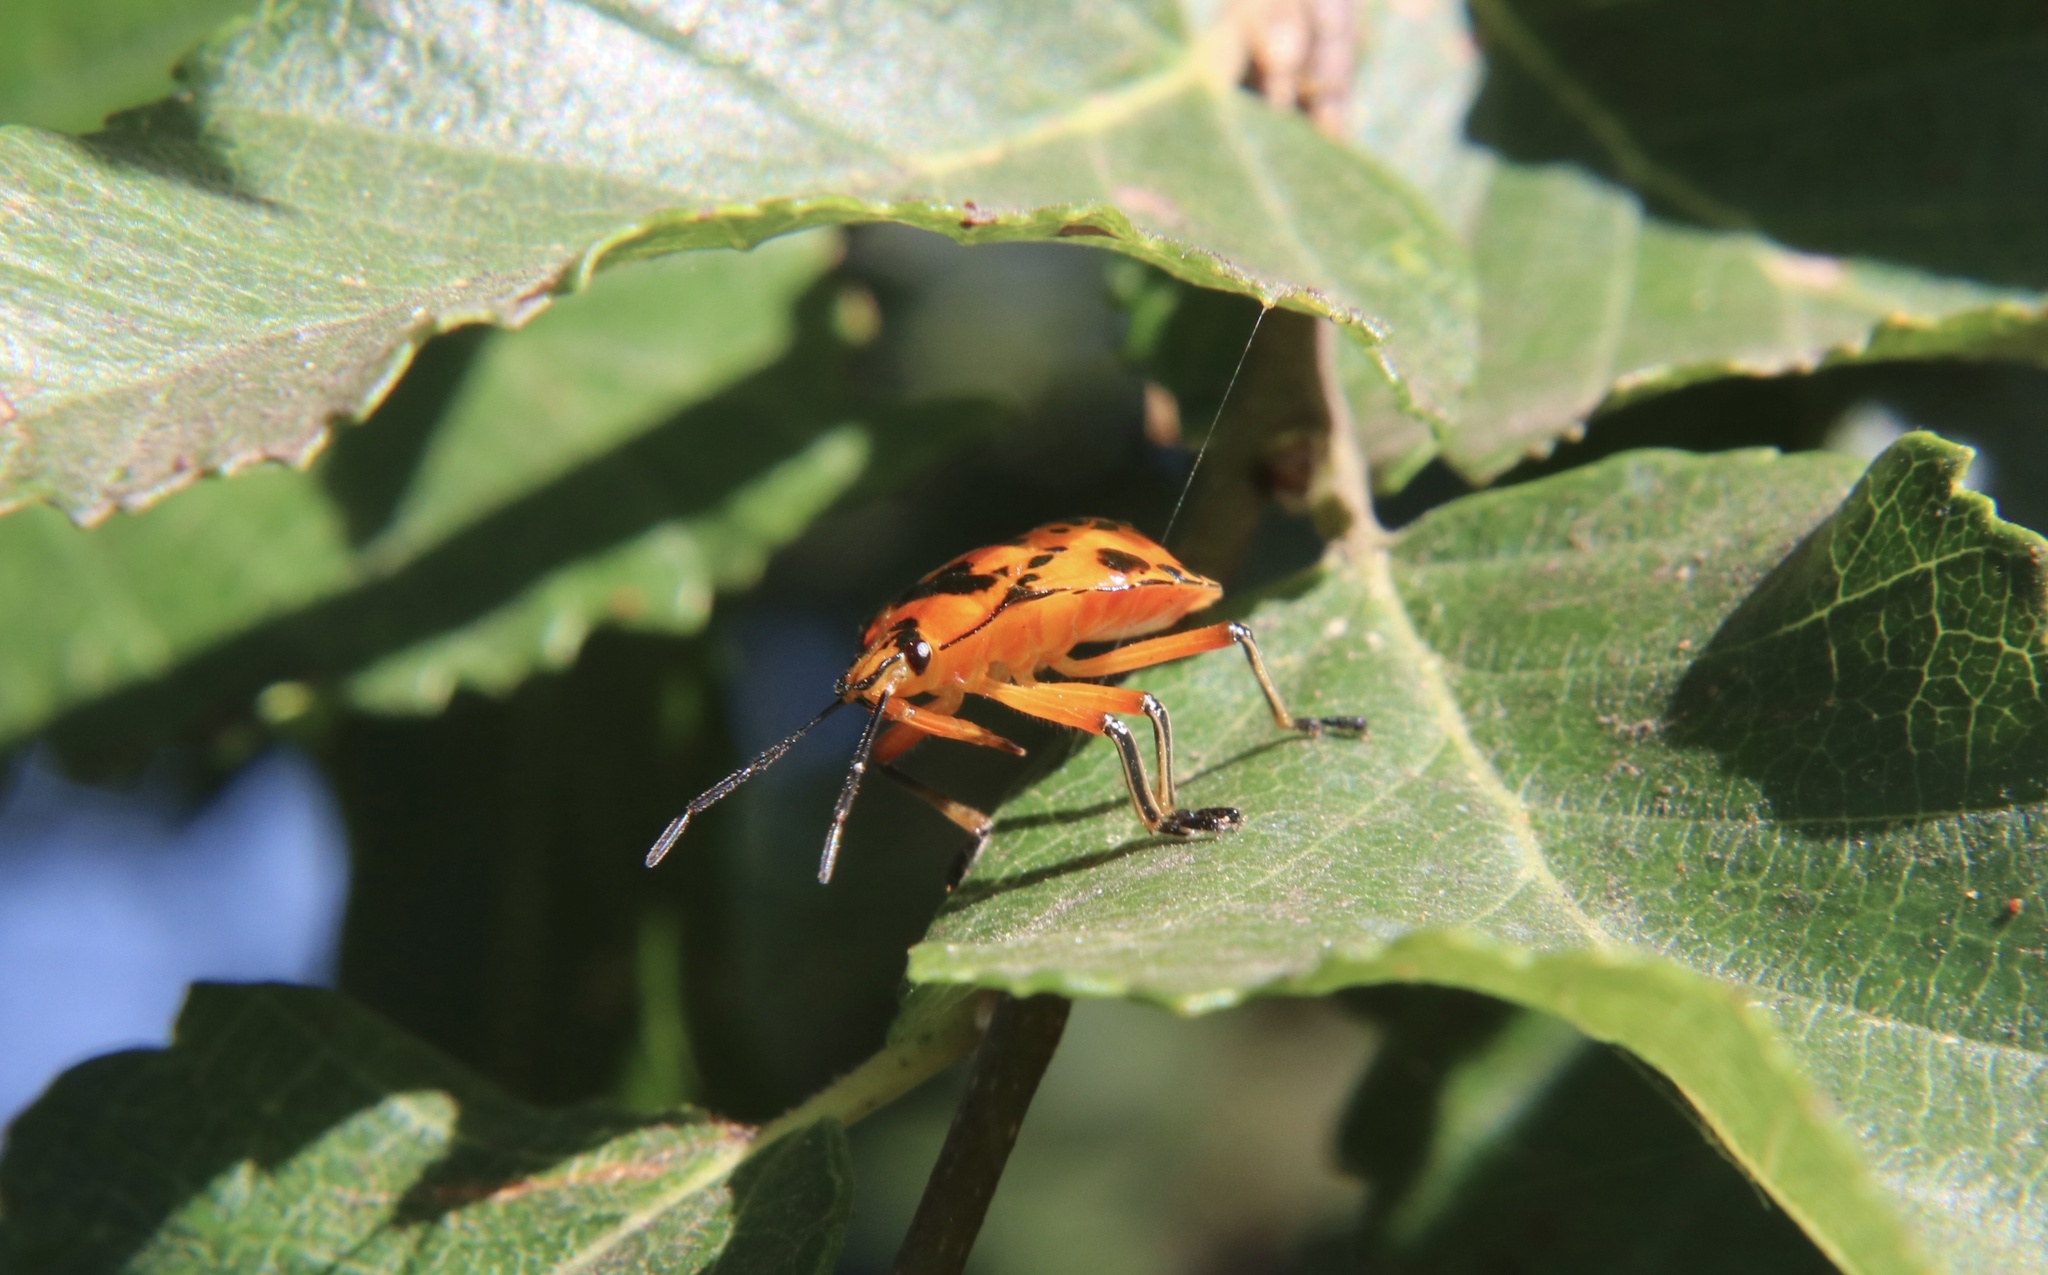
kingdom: Animalia
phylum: Arthropoda
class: Insecta
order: Hemiptera
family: Pentatomidae
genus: Brontocoris
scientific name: Brontocoris
